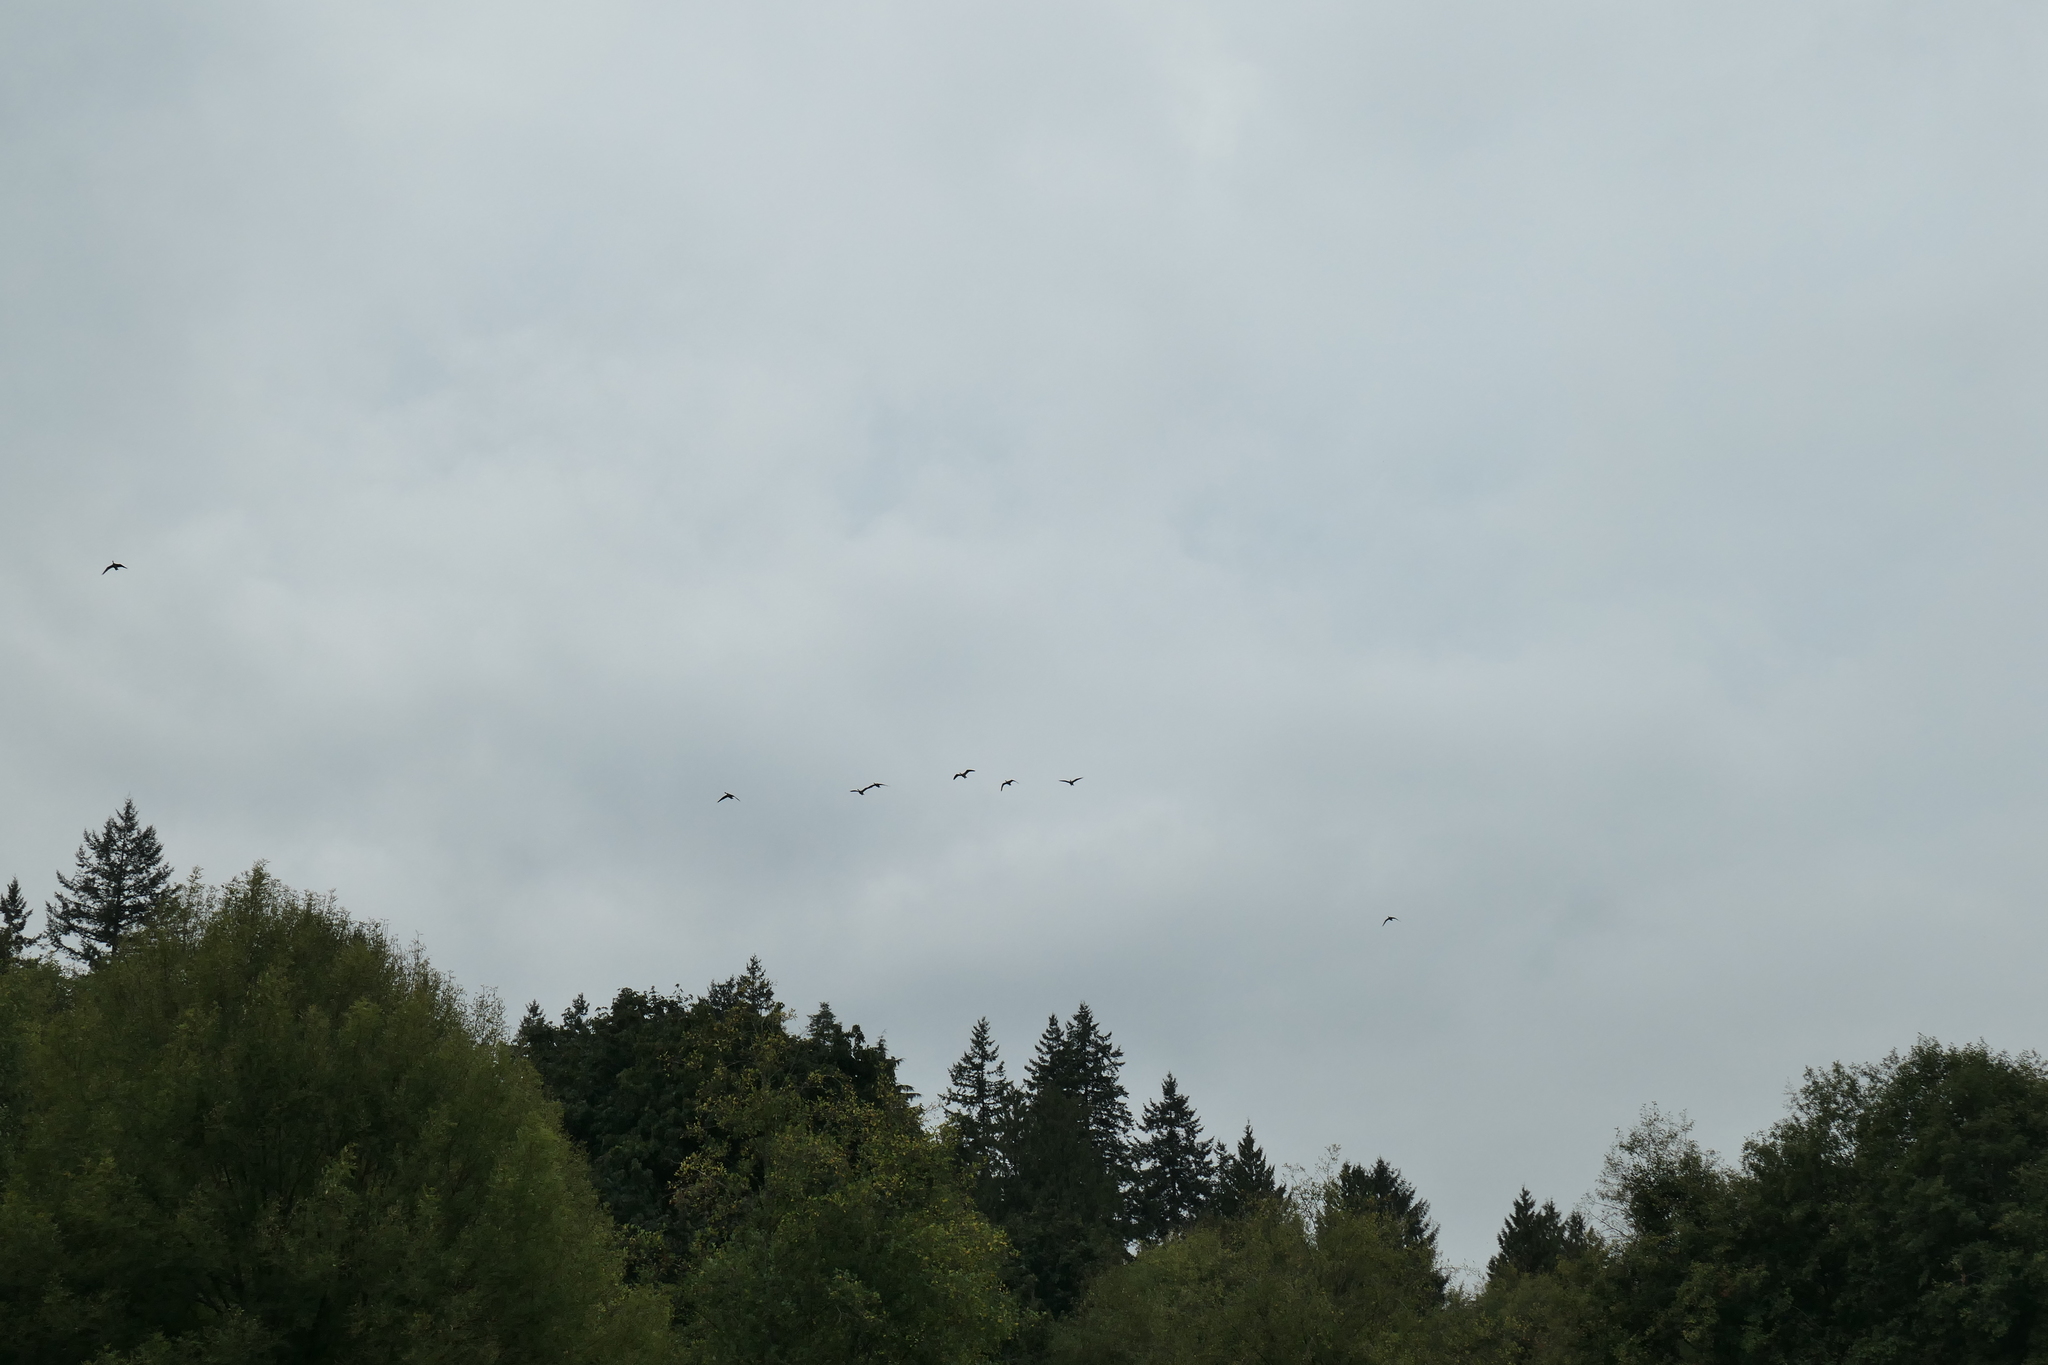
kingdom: Animalia
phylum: Chordata
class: Aves
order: Anseriformes
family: Anatidae
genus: Branta
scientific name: Branta canadensis
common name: Canada goose
